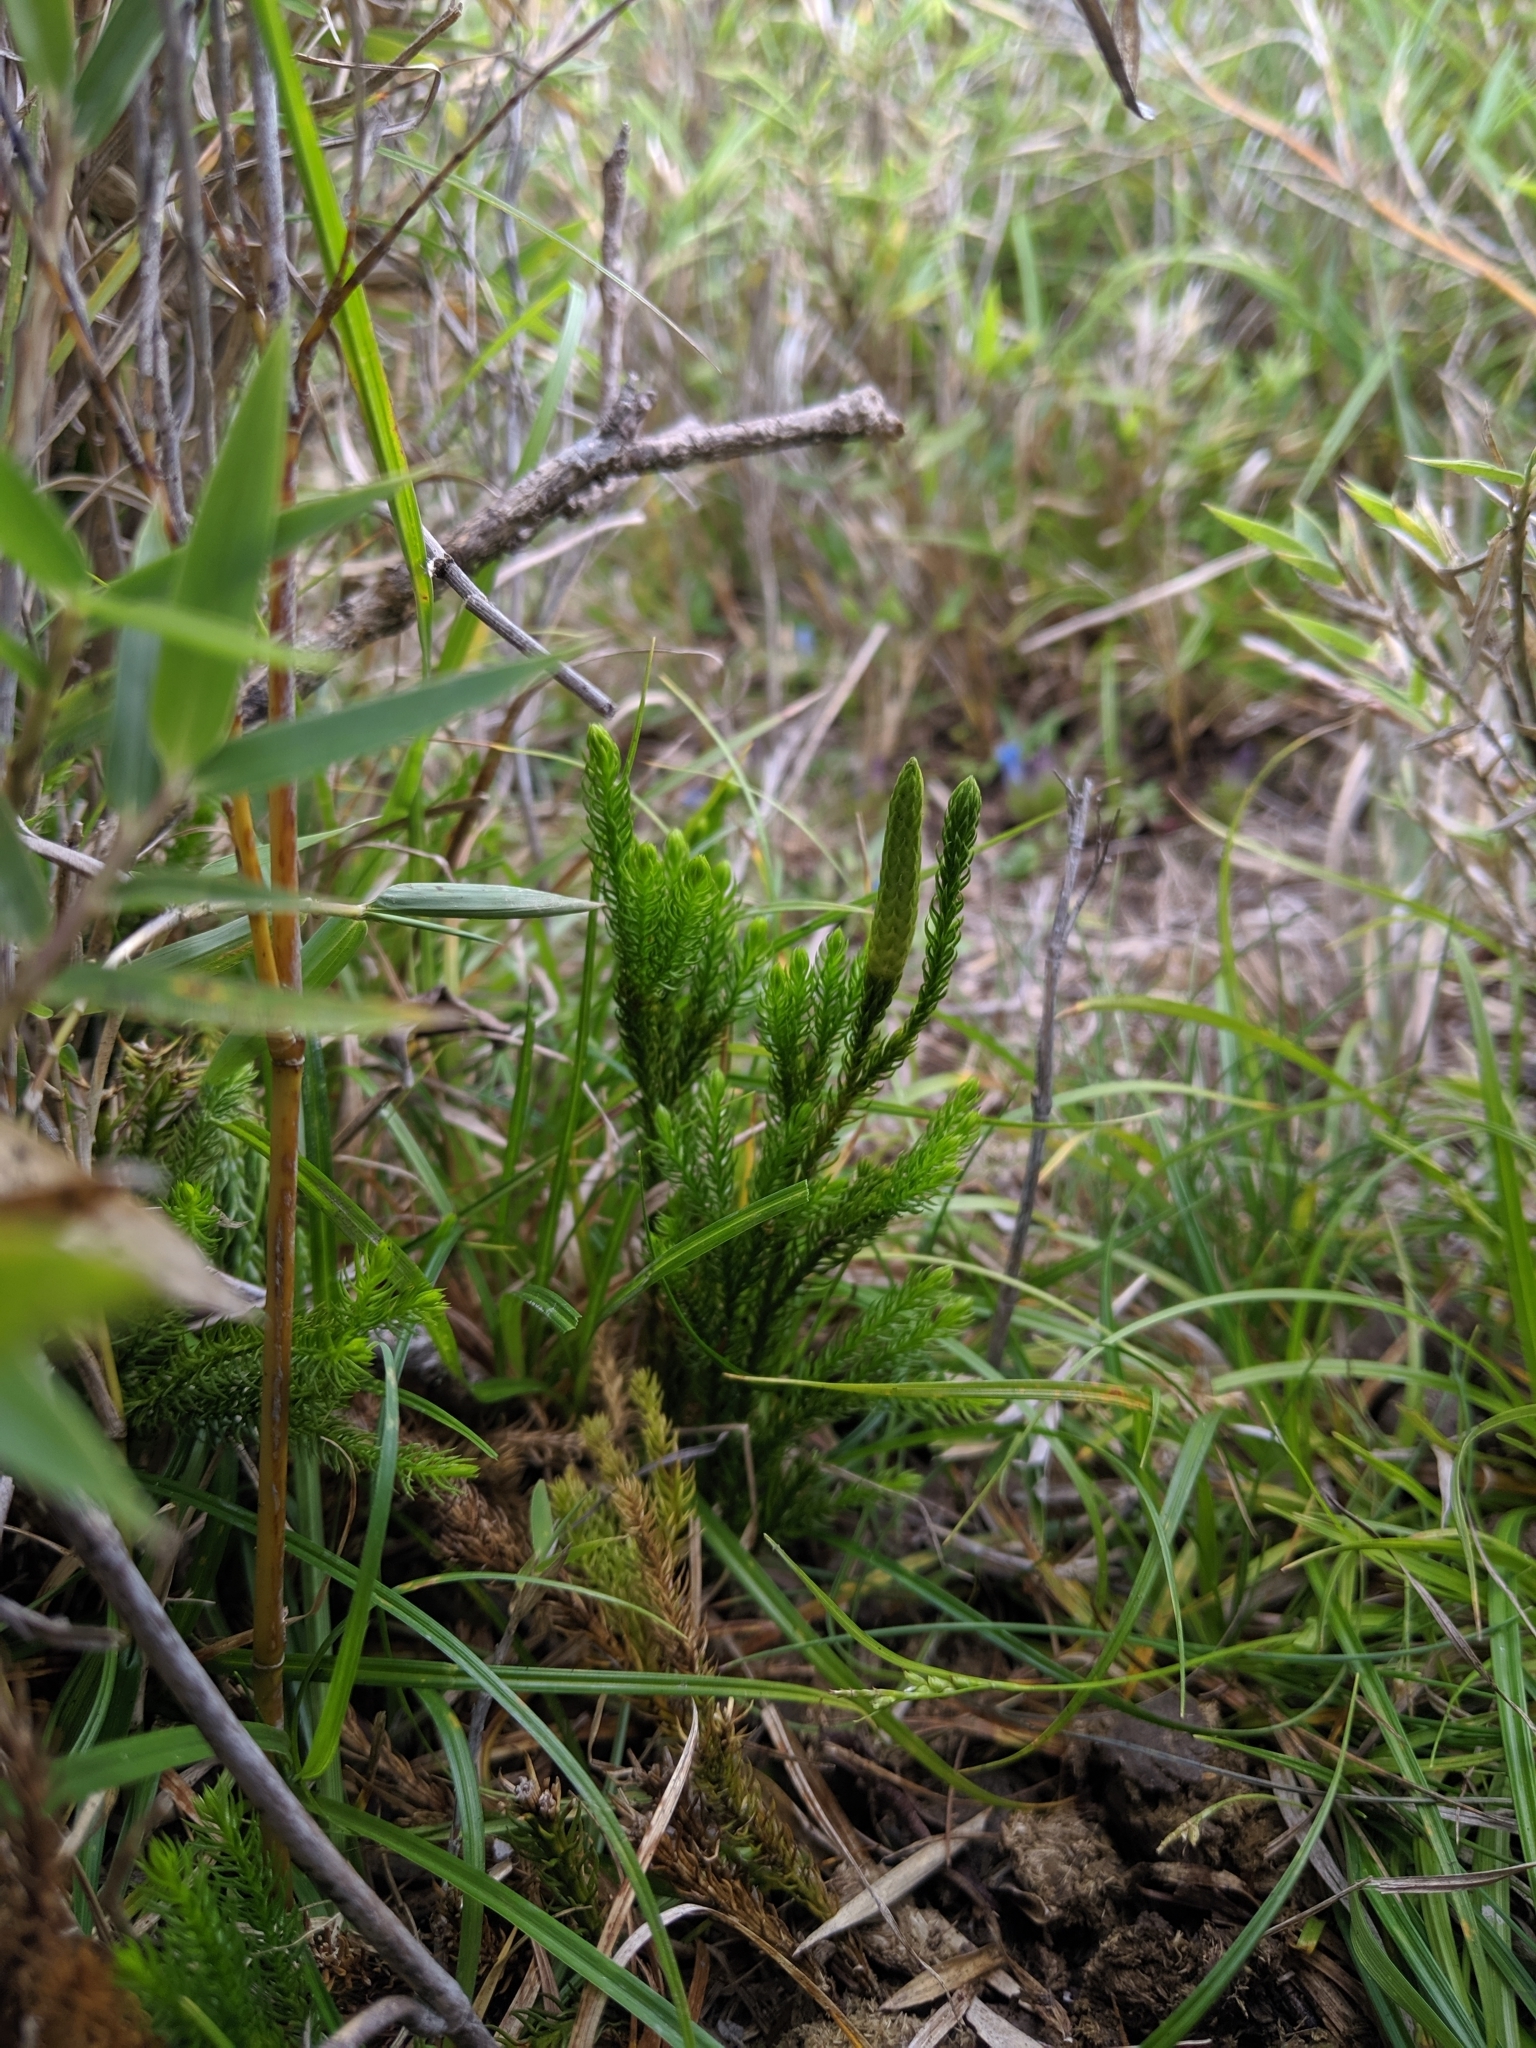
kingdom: Plantae
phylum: Tracheophyta
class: Lycopodiopsida
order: Lycopodiales
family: Lycopodiaceae
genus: Dendrolycopodium
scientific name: Dendrolycopodium juniperoideum
